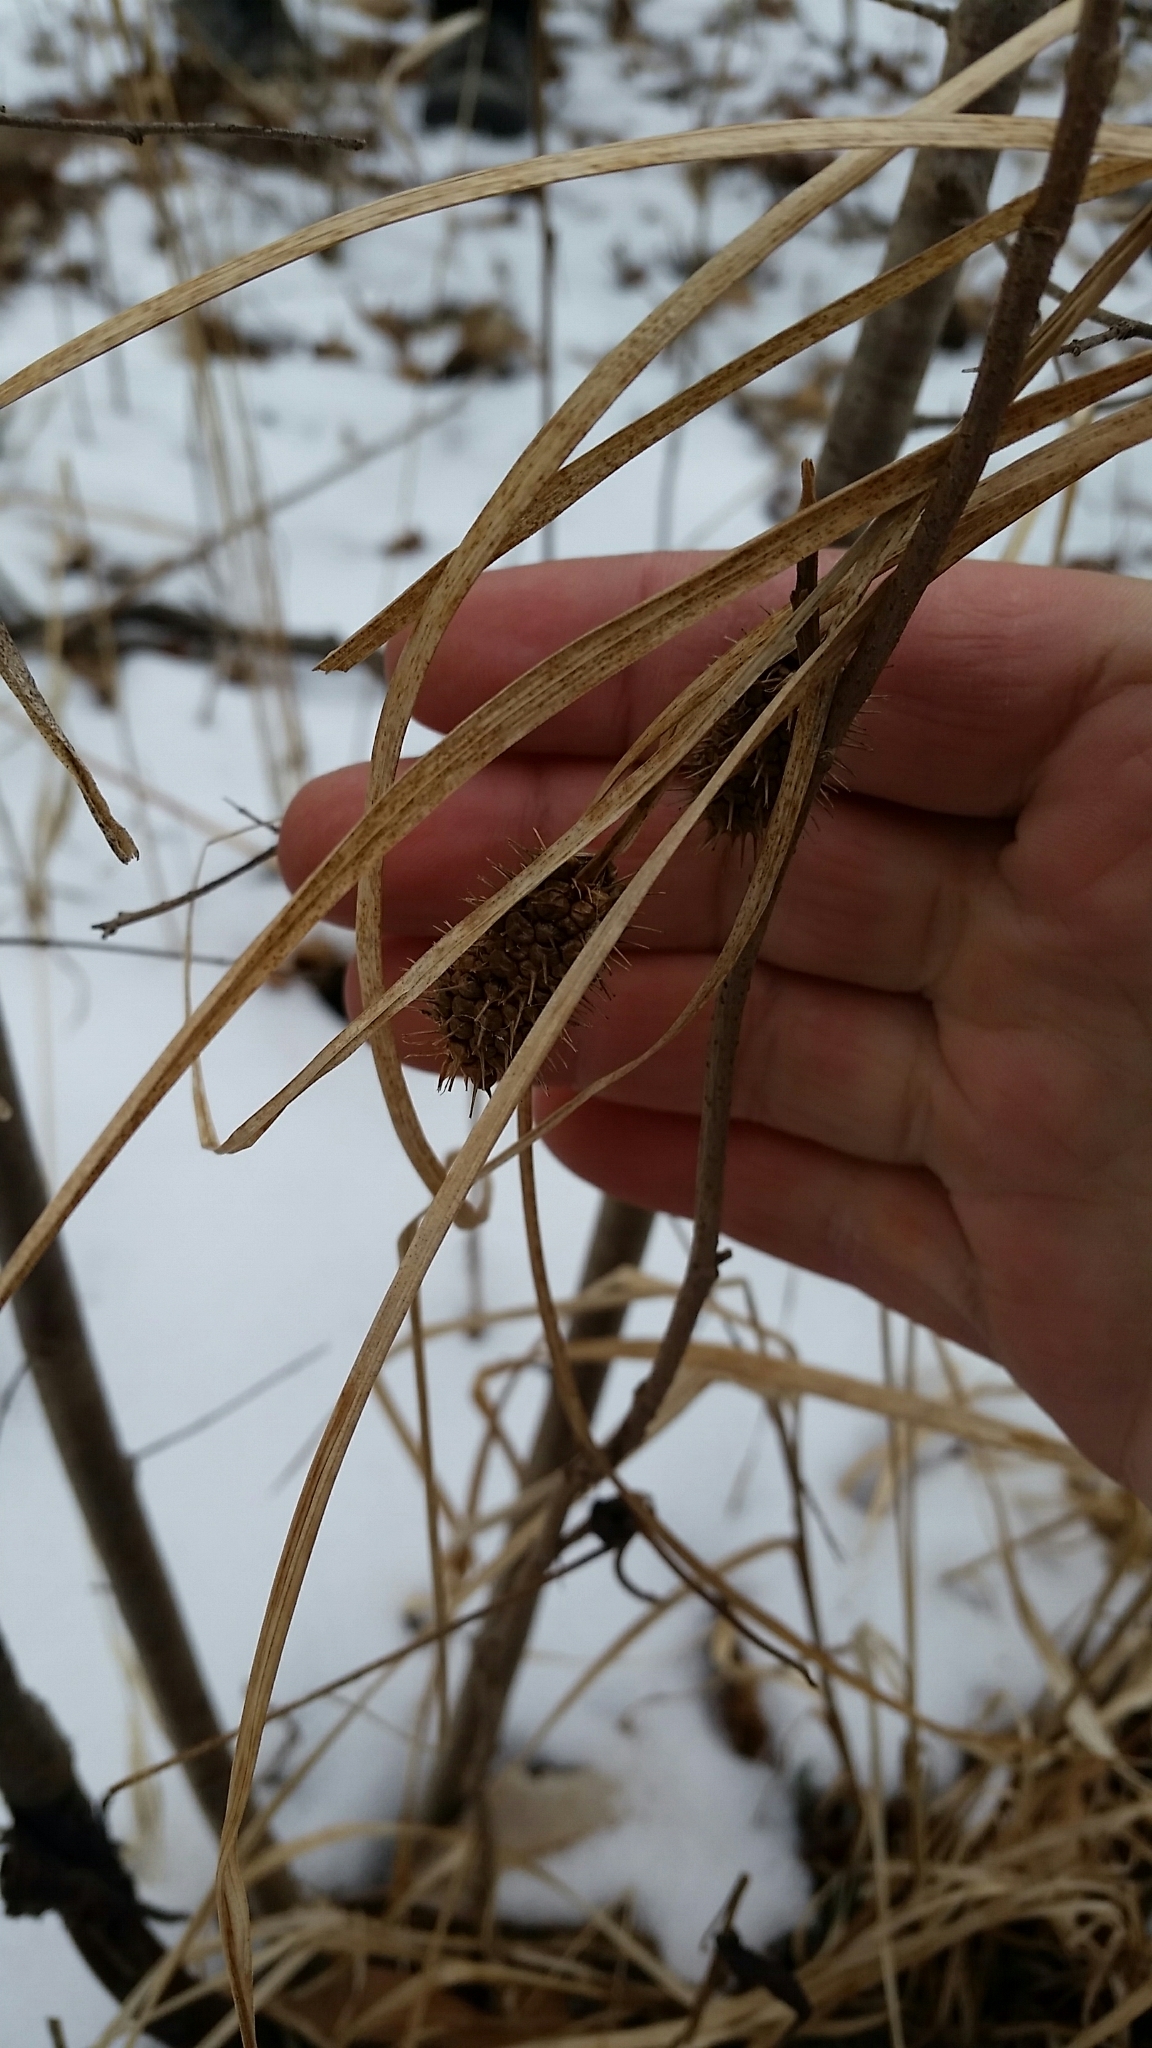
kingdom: Plantae
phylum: Tracheophyta
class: Liliopsida
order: Poales
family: Cyperaceae
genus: Carex
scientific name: Carex squarrosa
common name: Narrow-leaved cattail sedge
